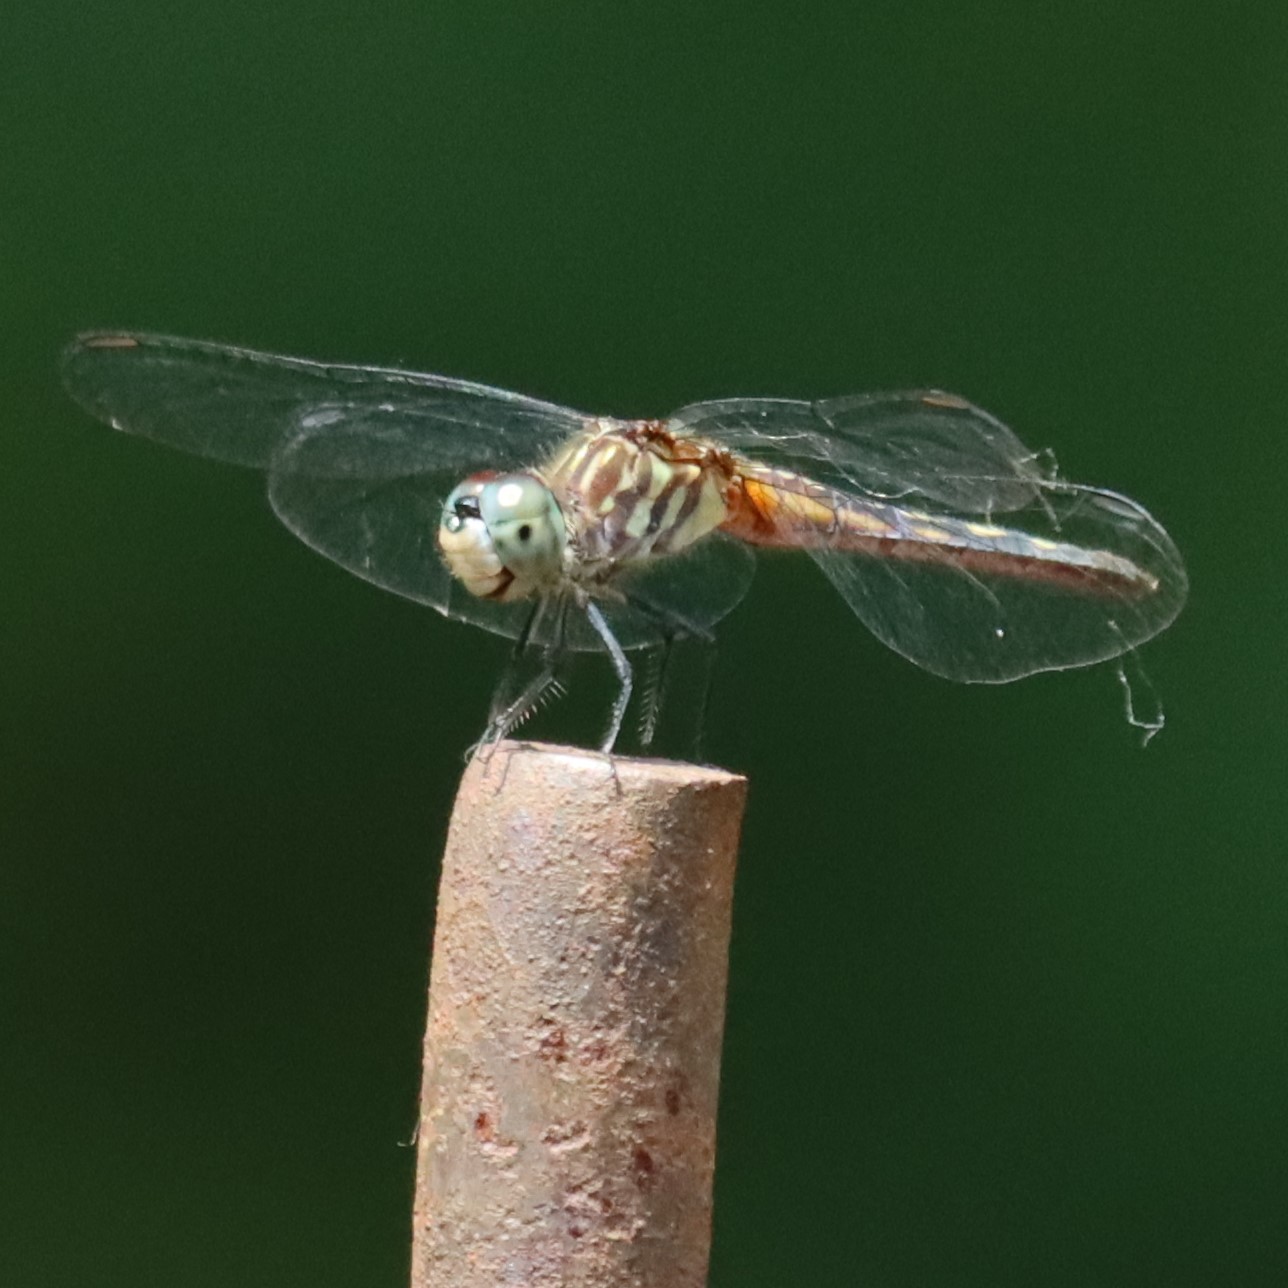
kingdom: Animalia
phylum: Arthropoda
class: Insecta
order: Odonata
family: Libellulidae
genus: Pachydiplax
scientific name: Pachydiplax longipennis
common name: Blue dasher
